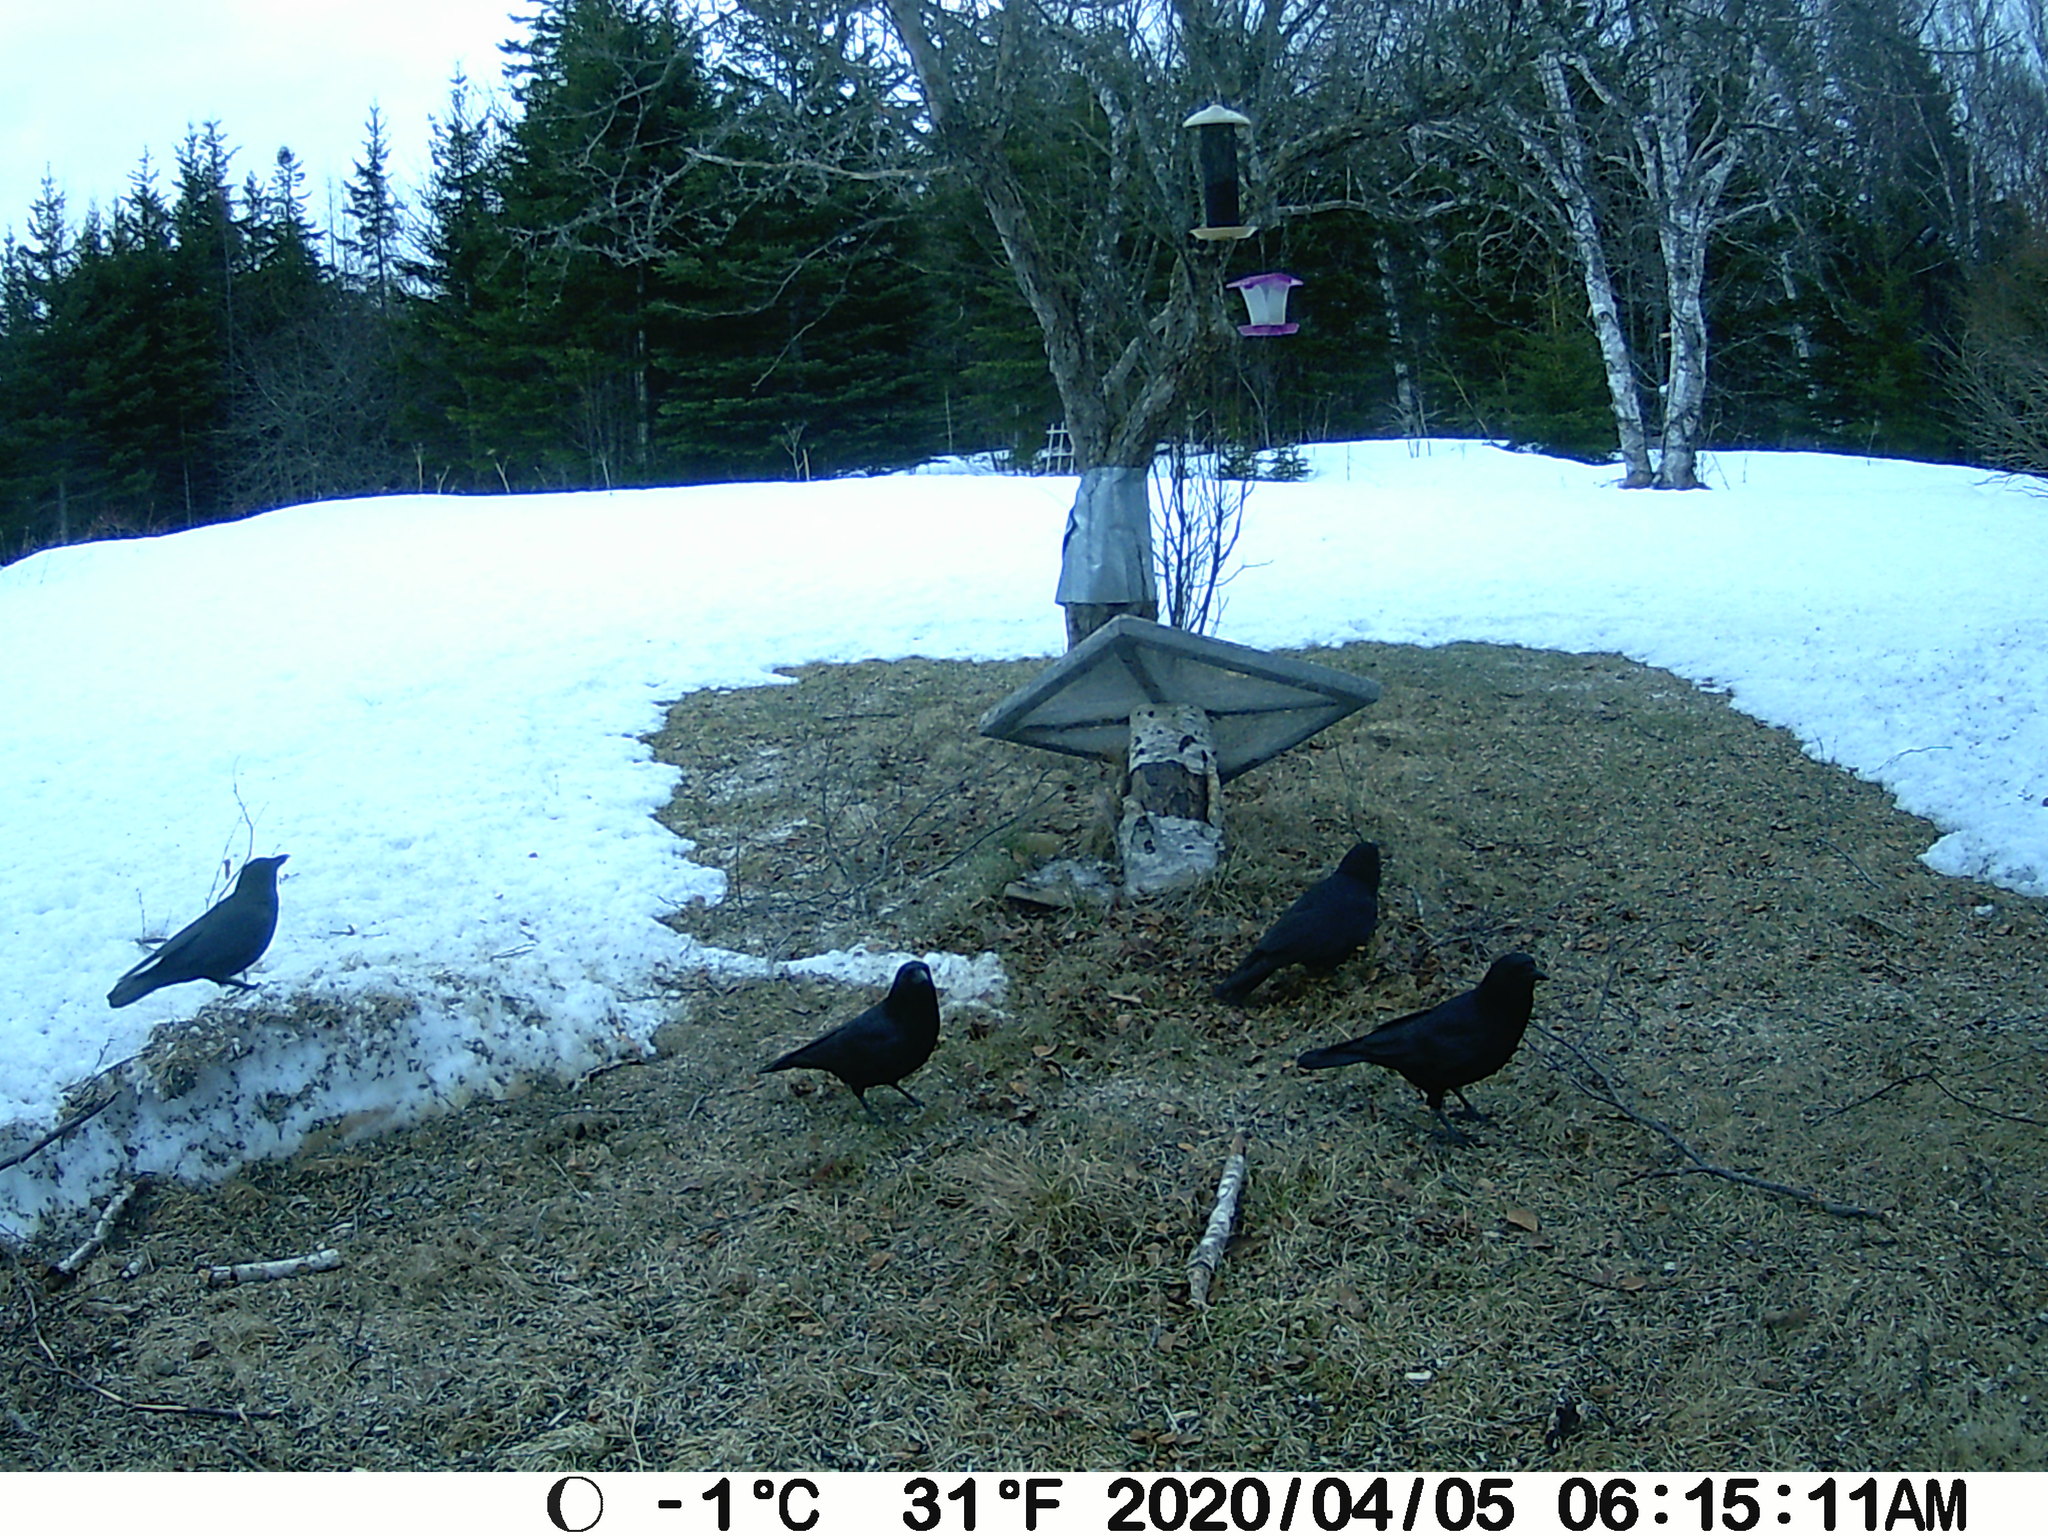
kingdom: Animalia
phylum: Chordata
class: Aves
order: Passeriformes
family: Corvidae
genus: Corvus
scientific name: Corvus brachyrhynchos
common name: American crow
